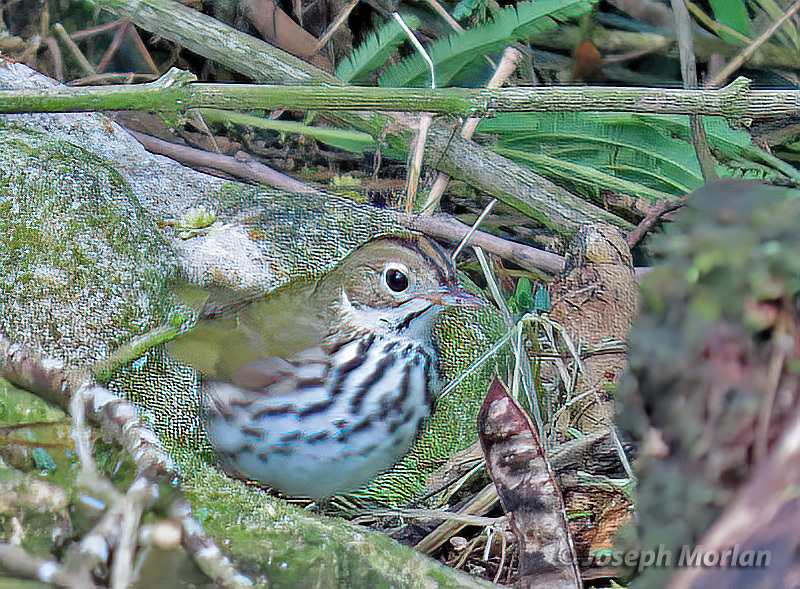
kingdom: Animalia
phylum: Chordata
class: Aves
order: Passeriformes
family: Parulidae
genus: Seiurus
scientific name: Seiurus aurocapilla
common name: Ovenbird
